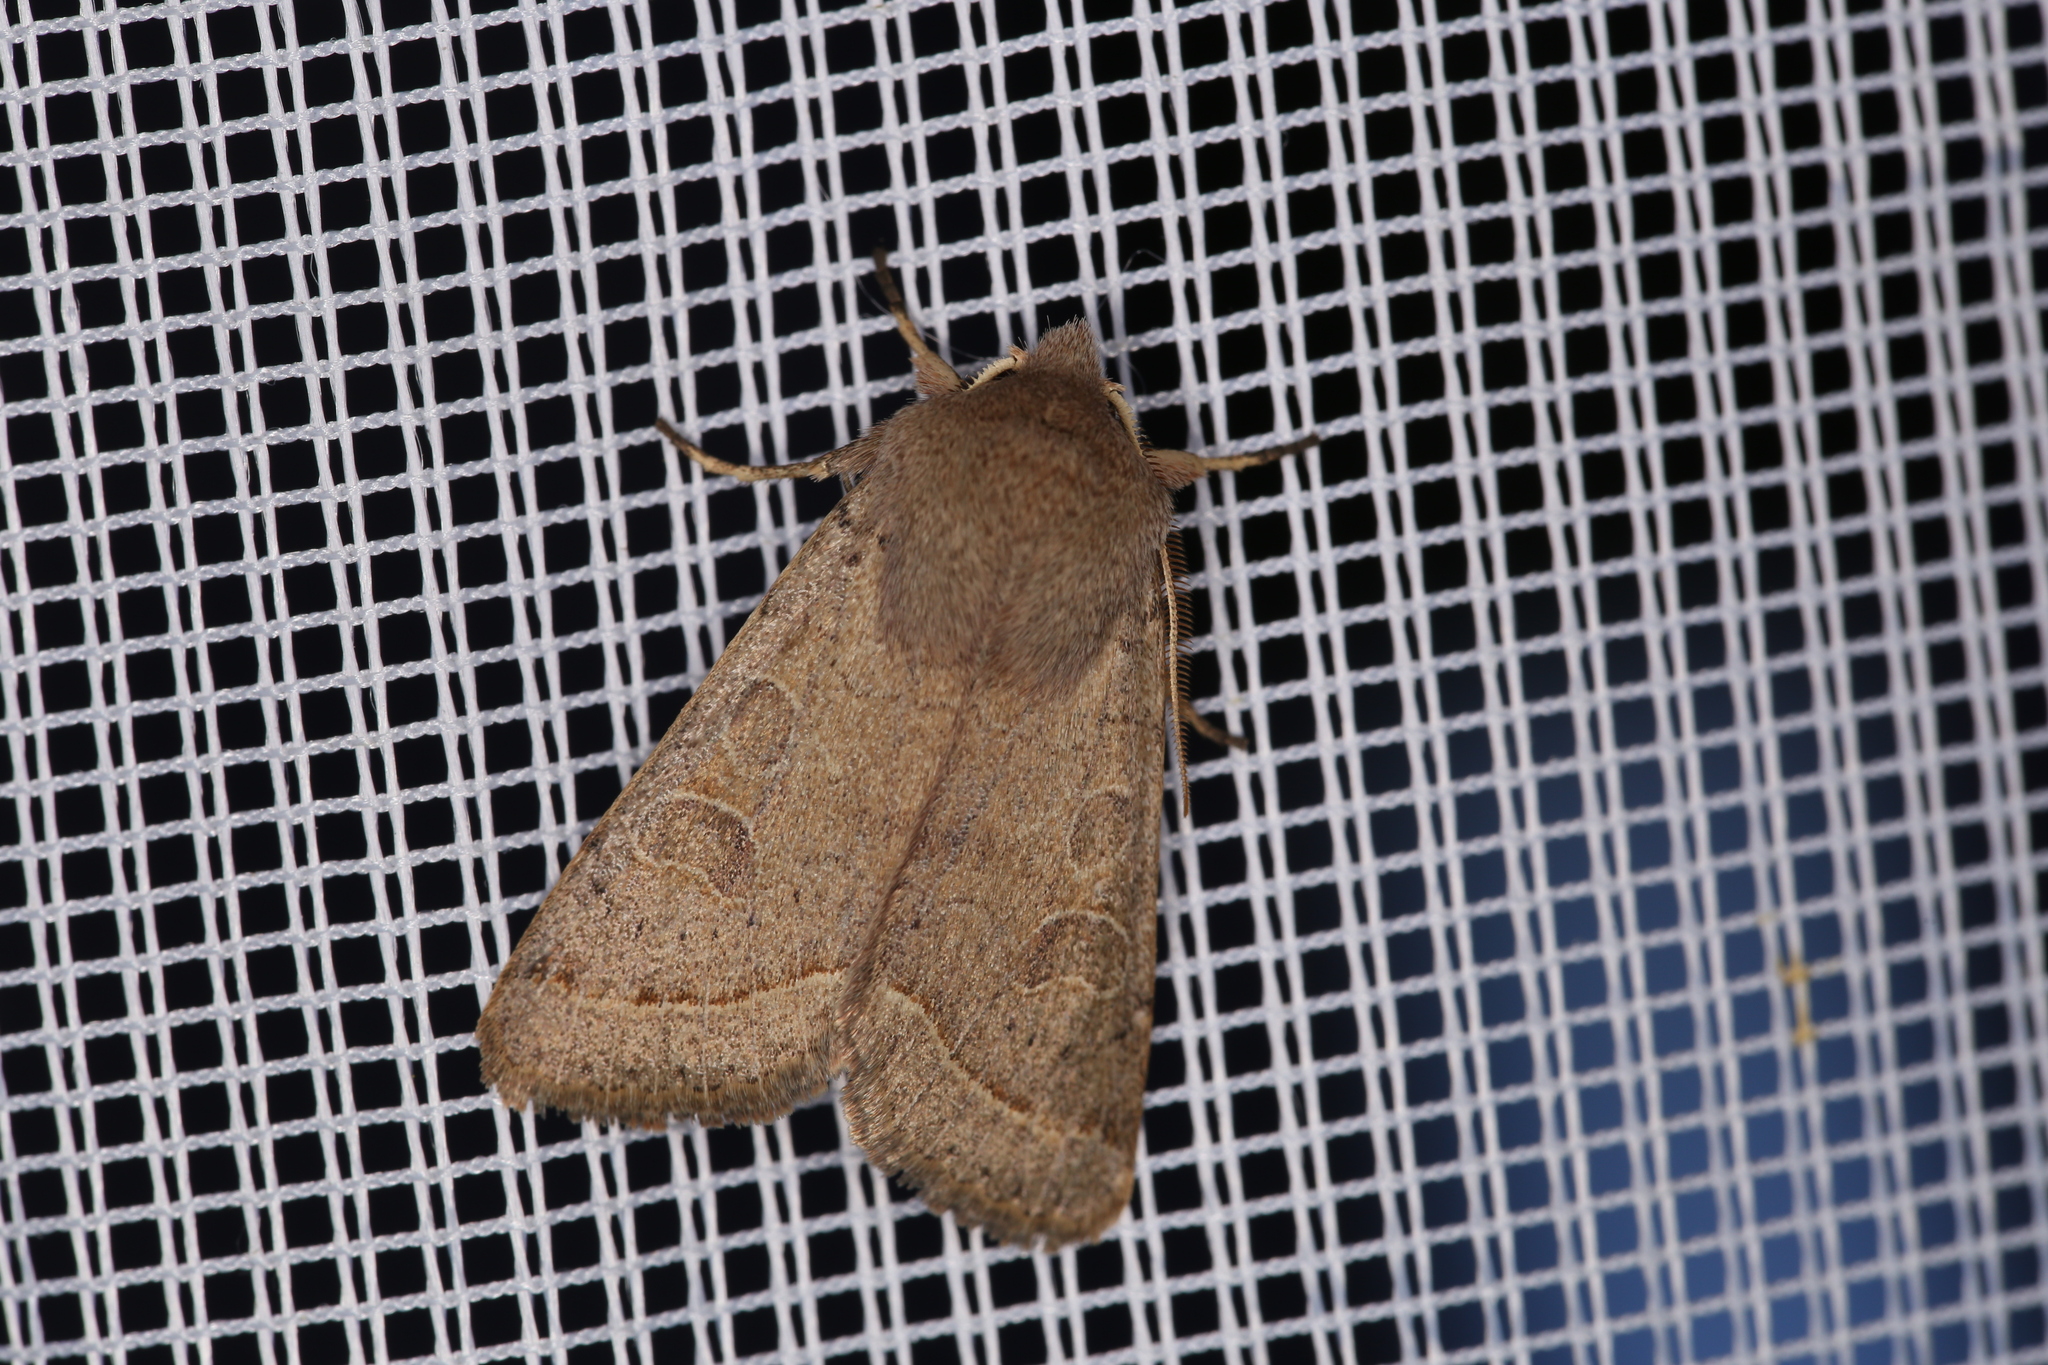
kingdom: Animalia
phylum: Arthropoda
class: Insecta
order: Lepidoptera
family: Noctuidae
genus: Orthosia
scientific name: Orthosia cerasi
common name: Common quaker
